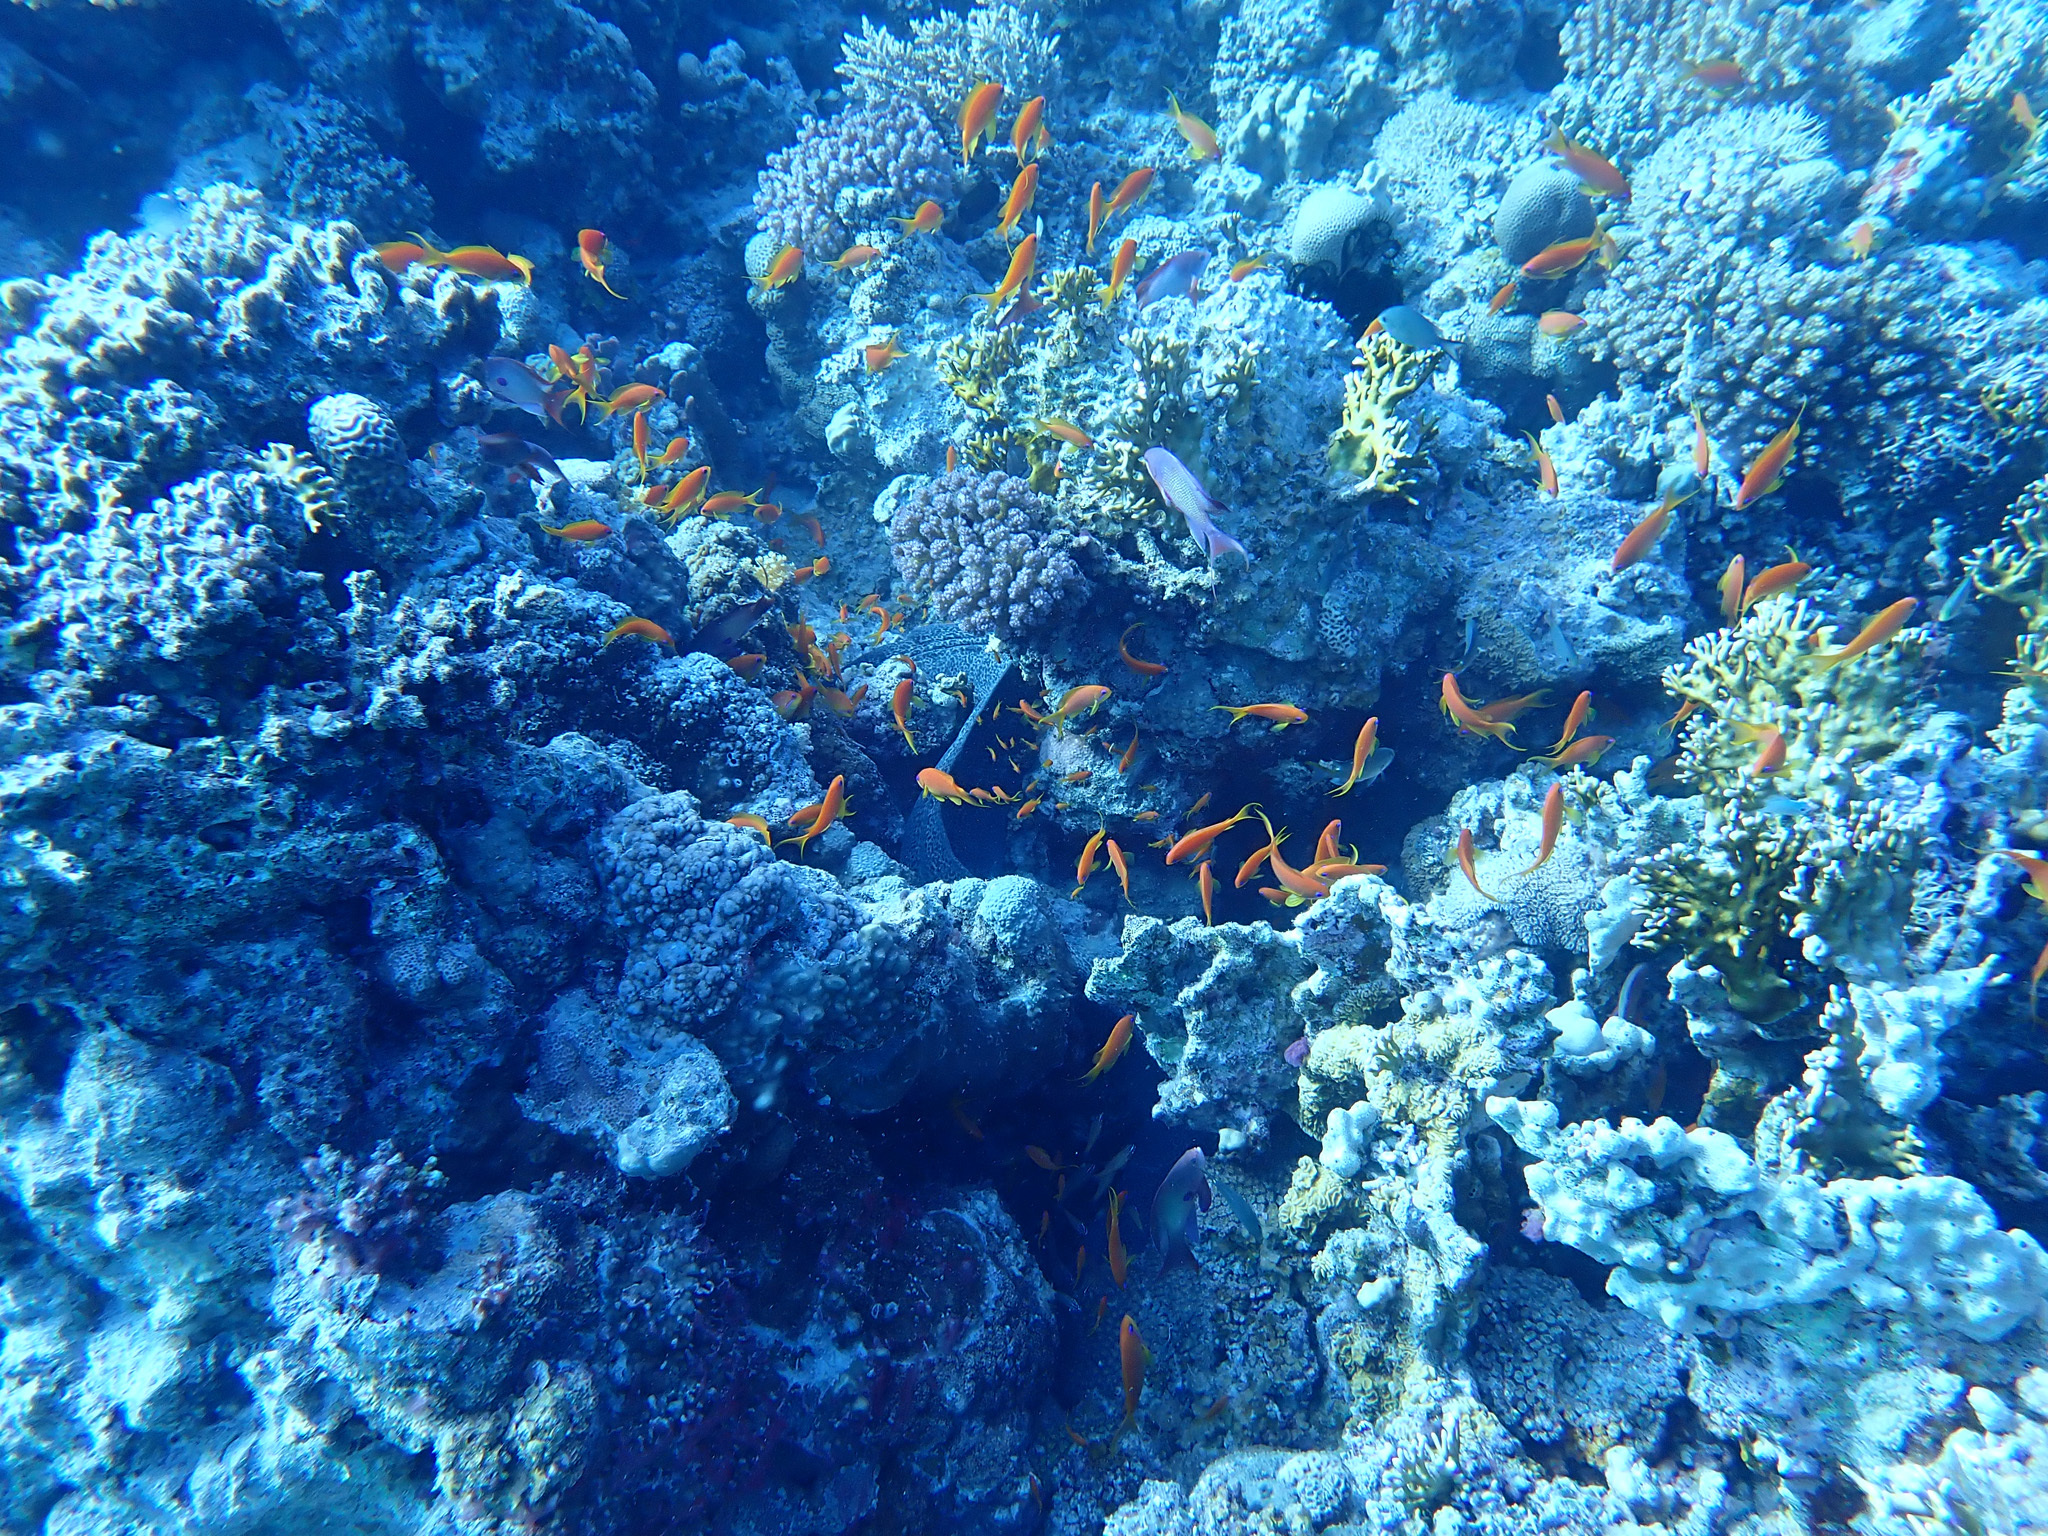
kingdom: Animalia
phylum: Chordata
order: Anguilliformes
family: Muraenidae
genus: Gymnothorax
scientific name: Gymnothorax javanicus
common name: Giant moray
